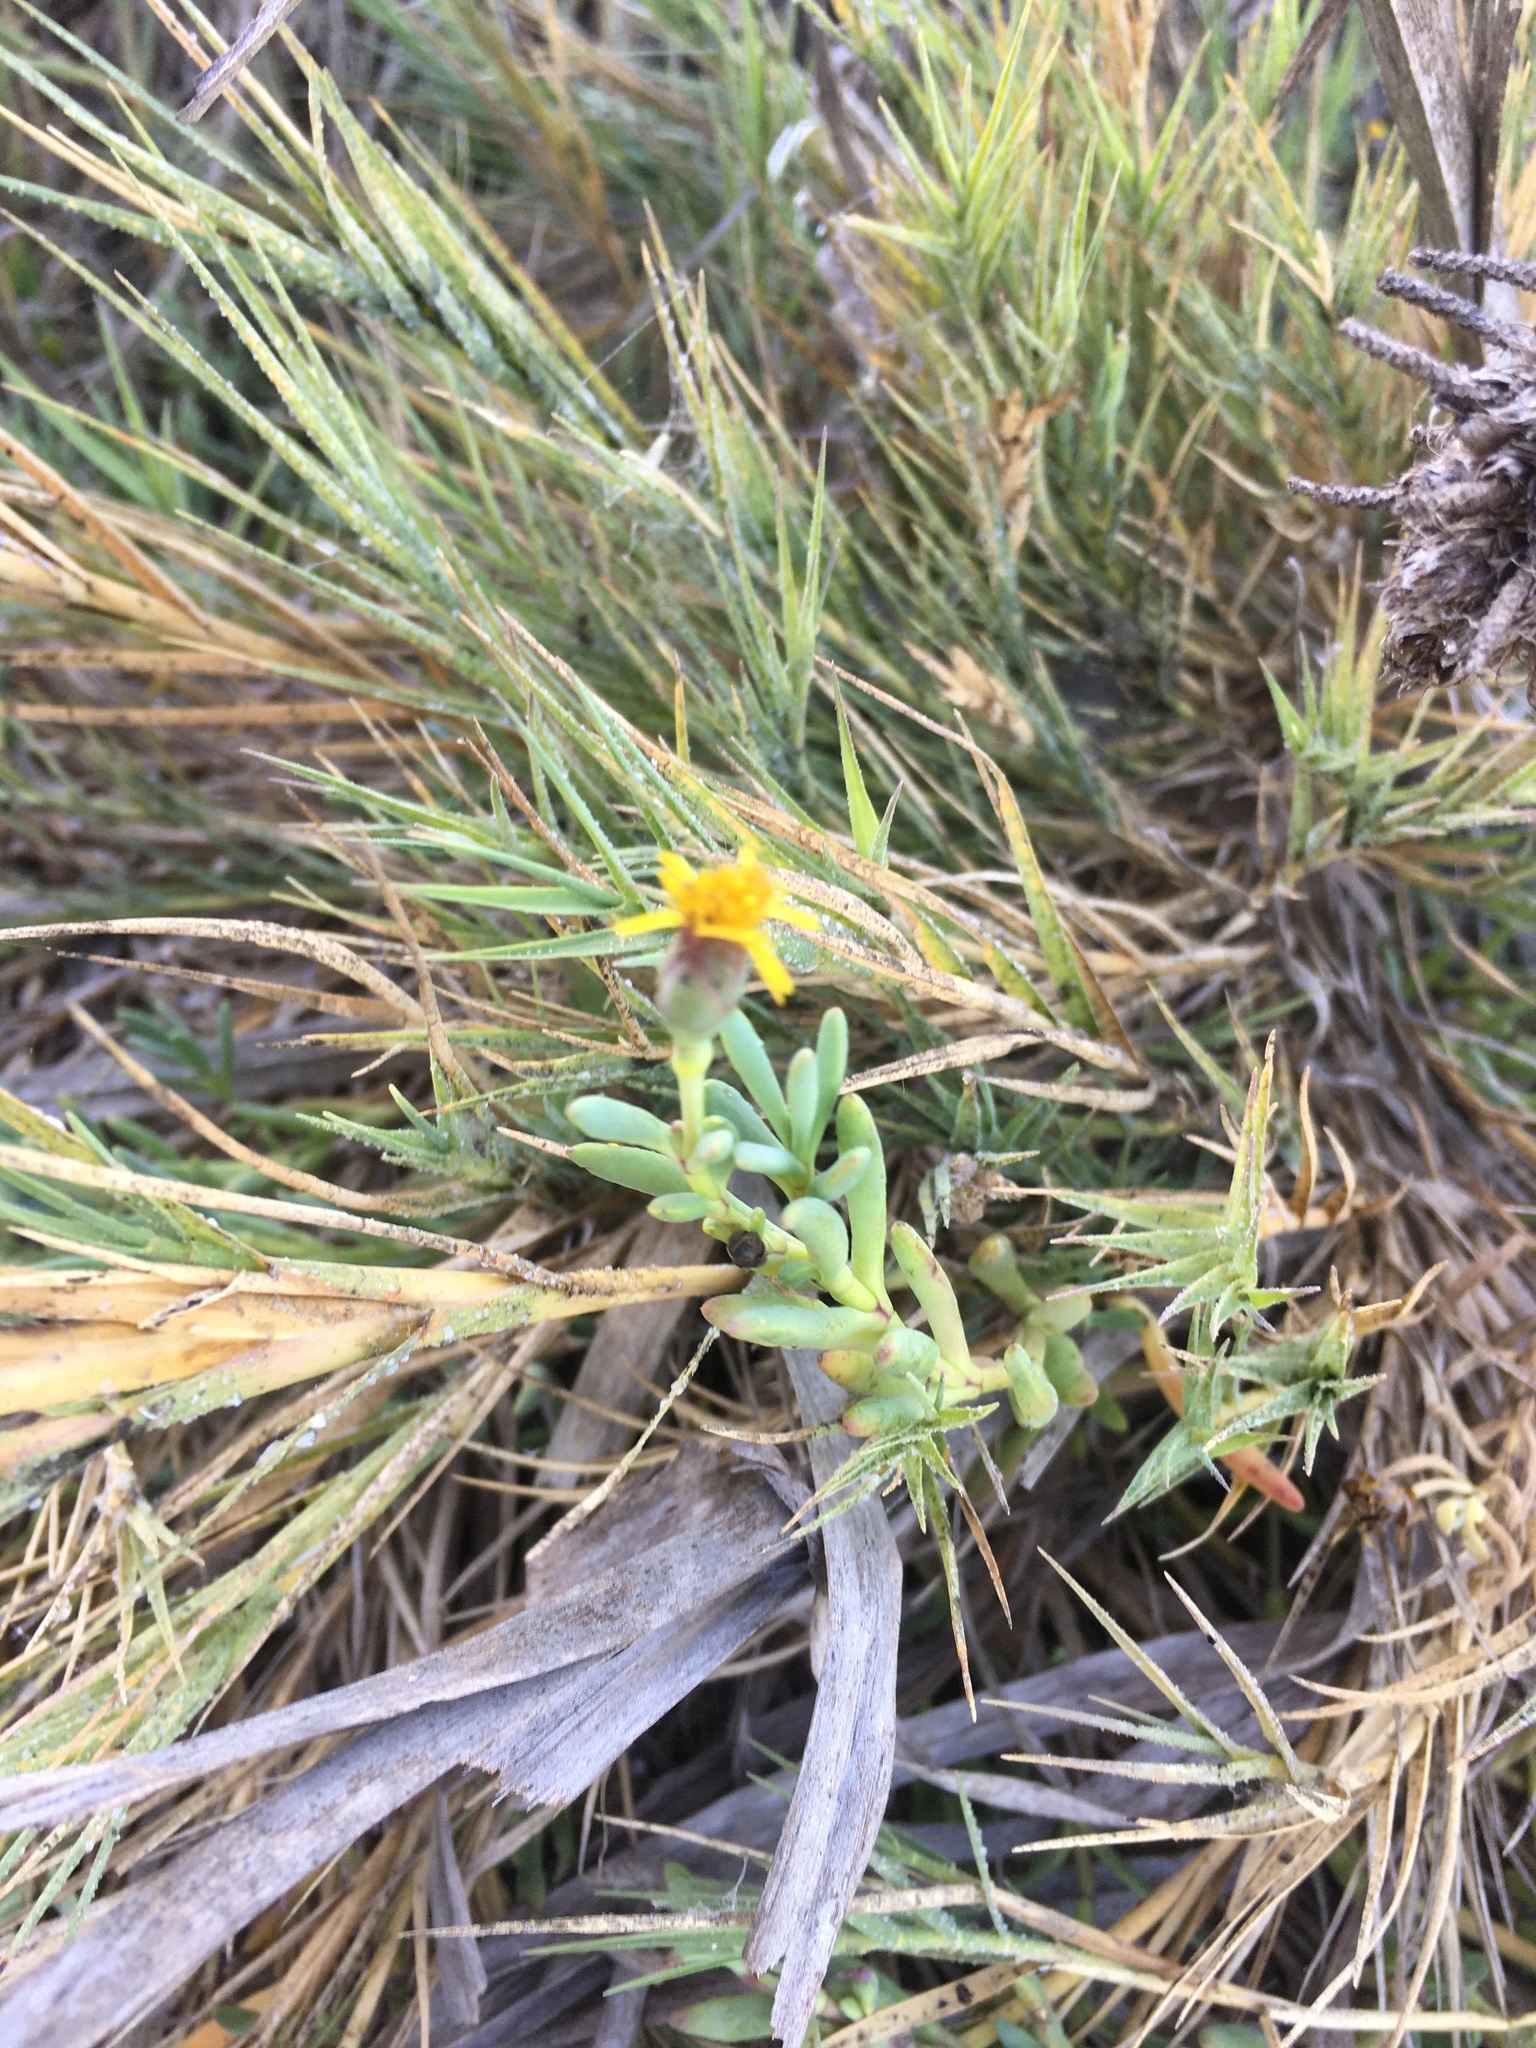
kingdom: Plantae
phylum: Tracheophyta
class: Magnoliopsida
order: Asterales
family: Asteraceae
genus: Jaumea
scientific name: Jaumea carnosa
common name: Fleshy jaumea
